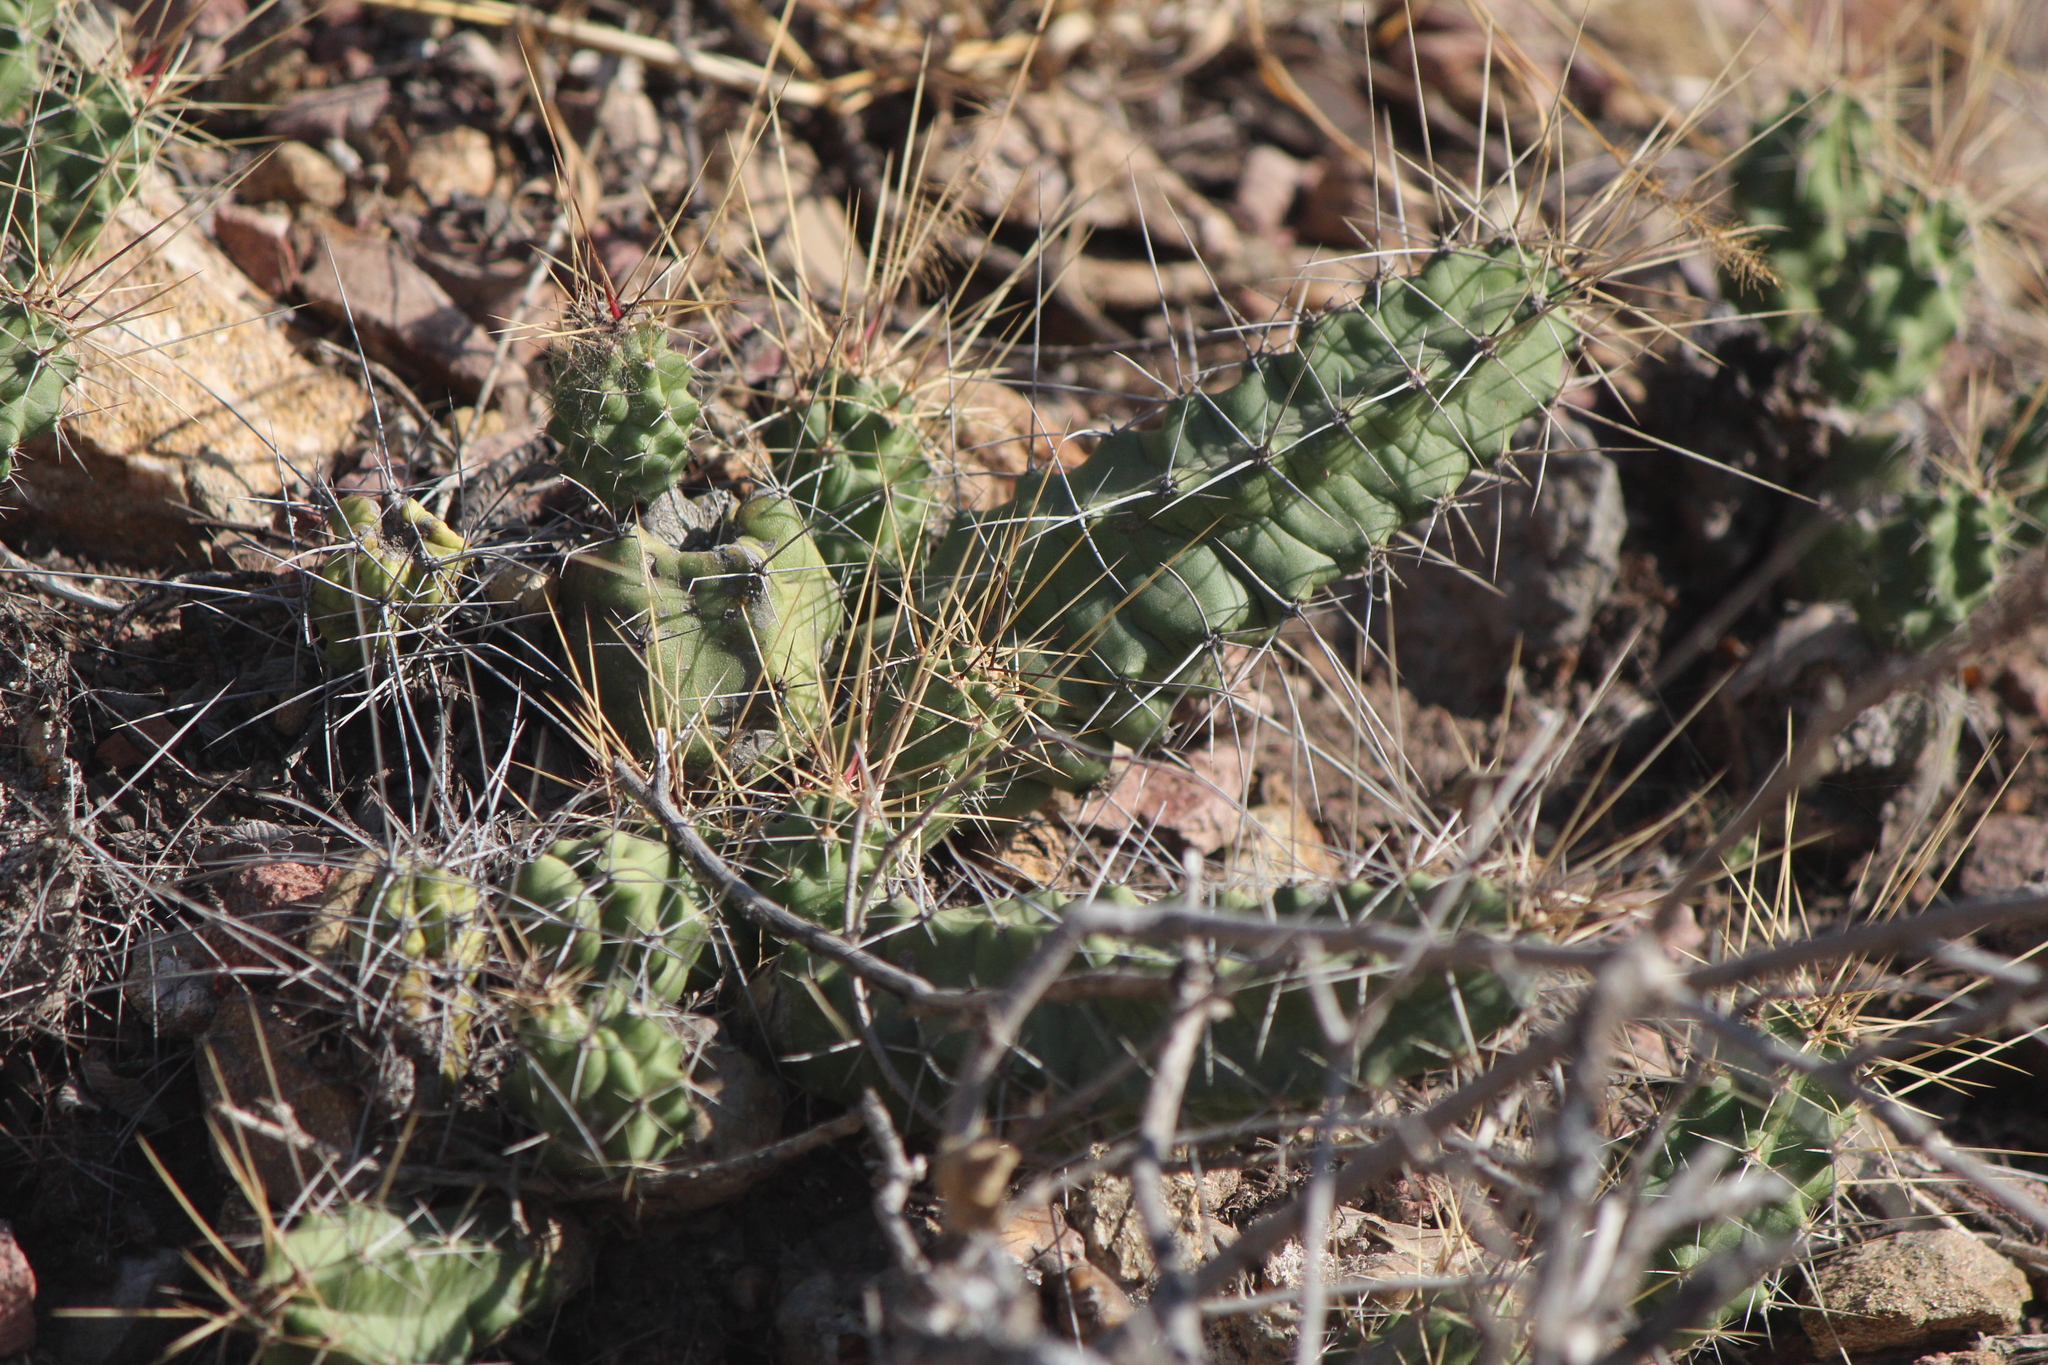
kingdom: Plantae
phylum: Tracheophyta
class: Magnoliopsida
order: Caryophyllales
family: Cactaceae
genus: Echinocereus
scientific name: Echinocereus pentalophus
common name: Ladyfinger cactus
